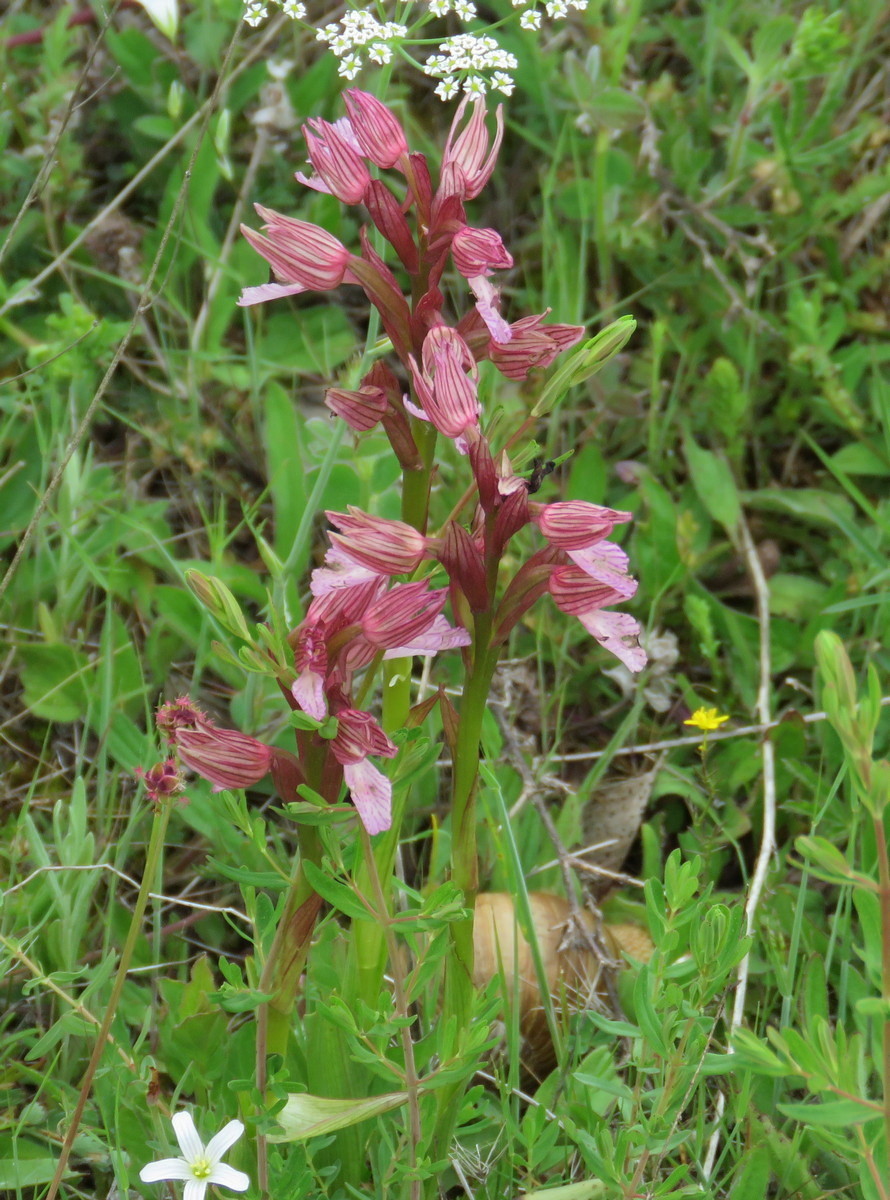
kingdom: Plantae
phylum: Tracheophyta
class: Liliopsida
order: Asparagales
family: Orchidaceae
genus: Anacamptis
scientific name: Anacamptis papilionacea
